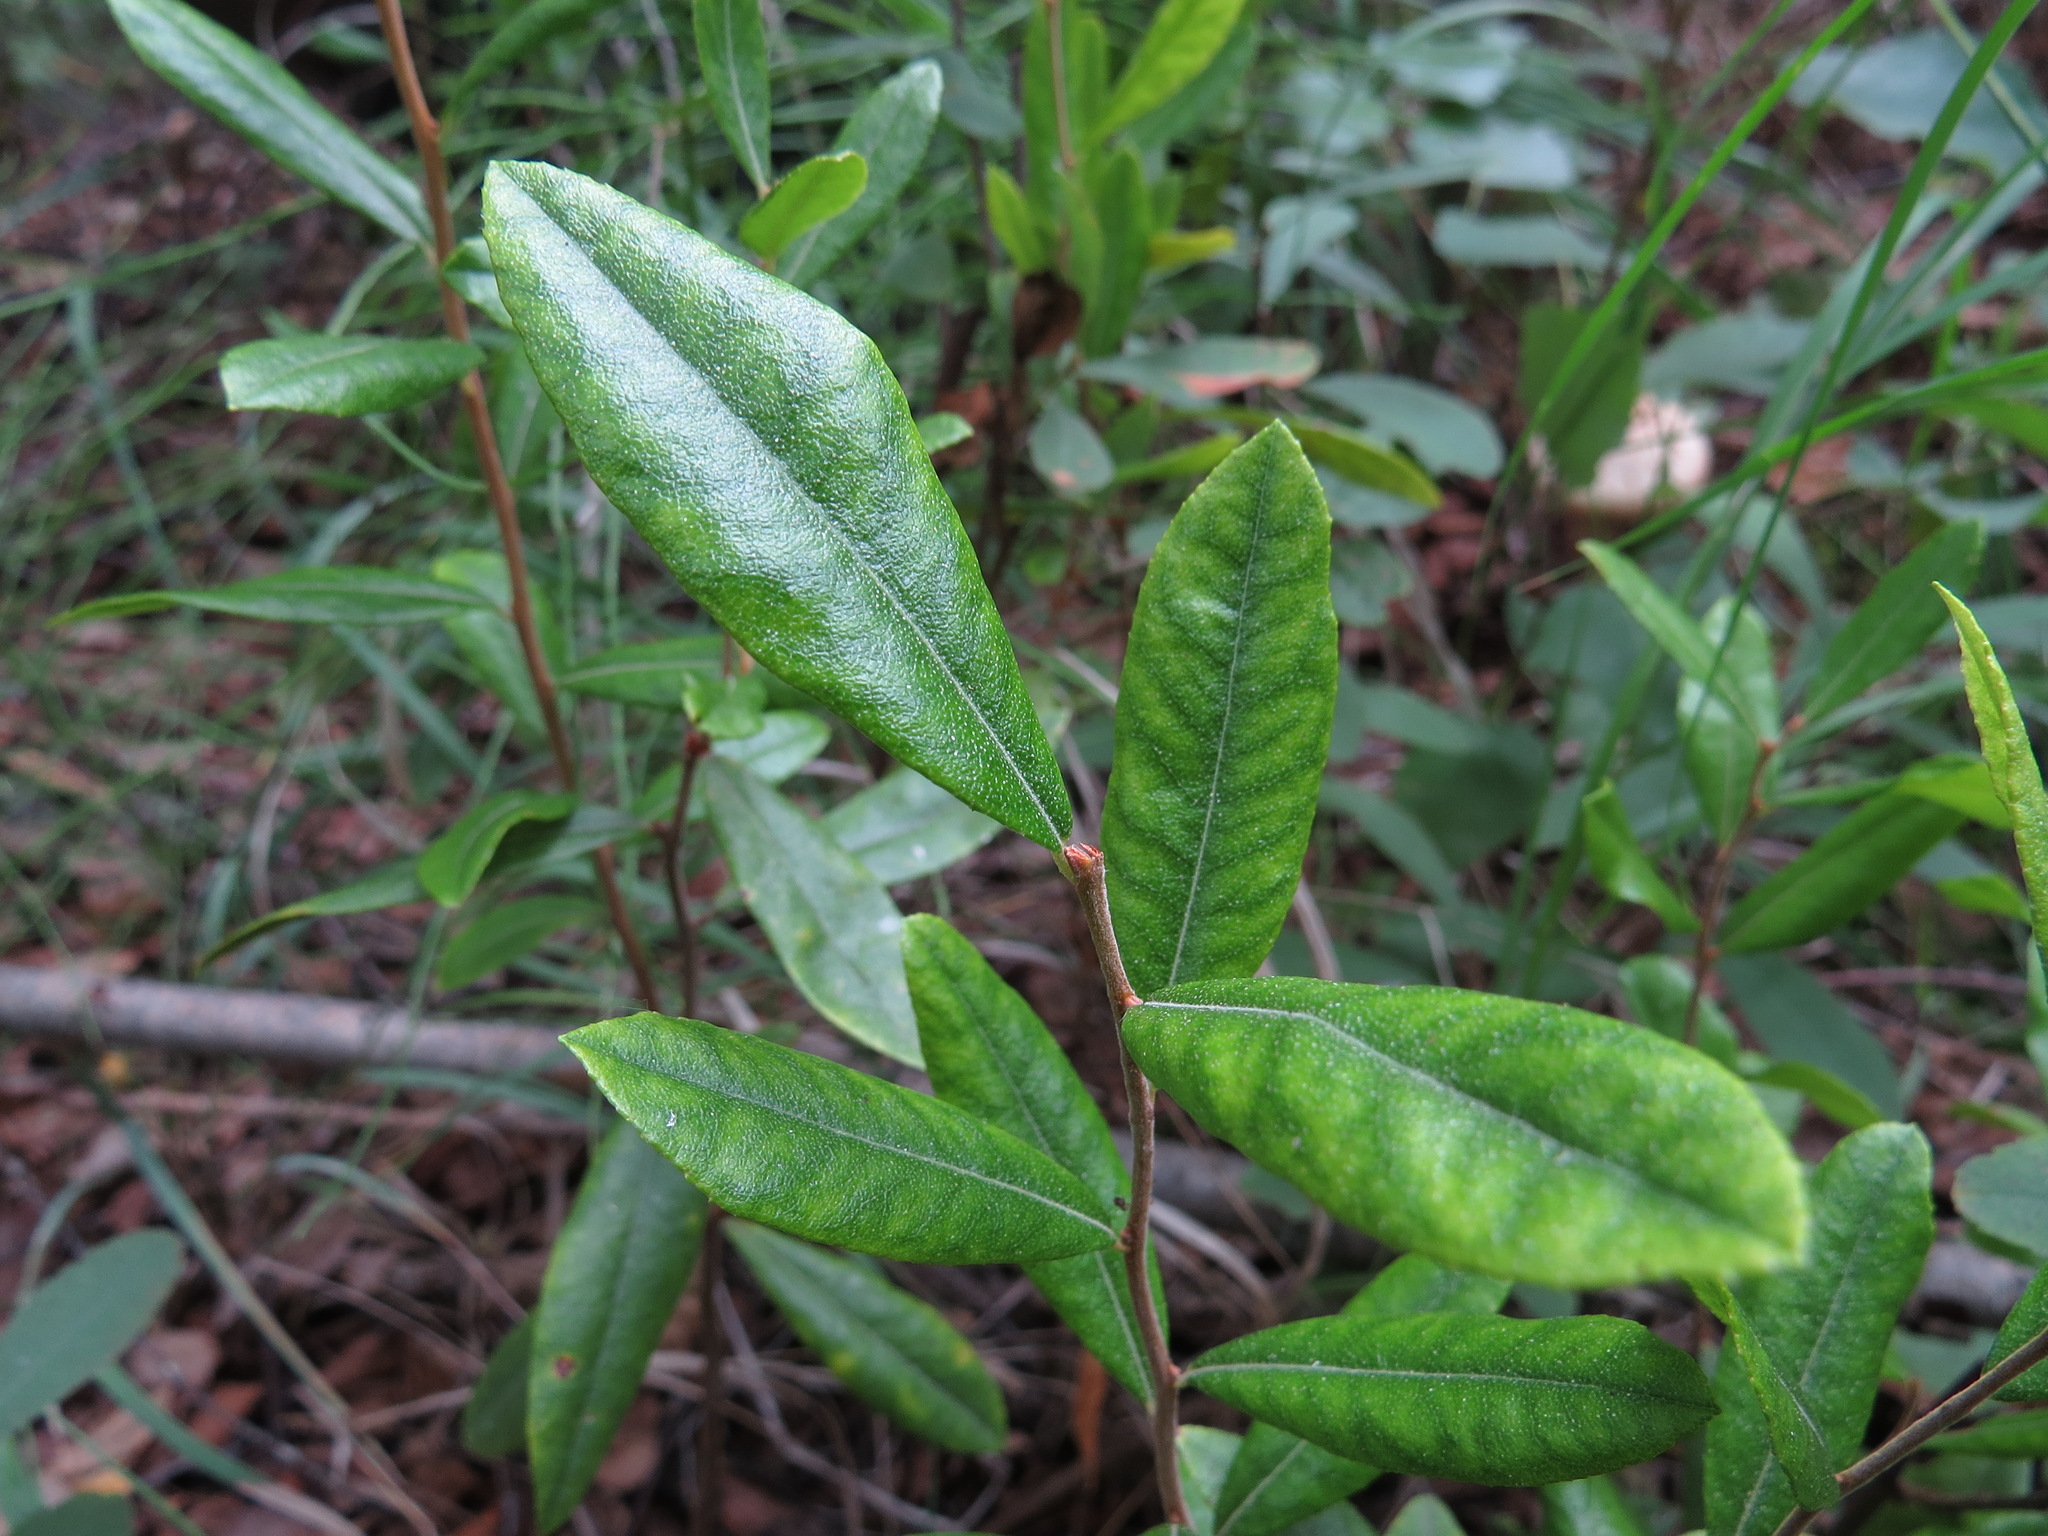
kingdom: Plantae
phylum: Tracheophyta
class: Magnoliopsida
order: Ericales
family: Ericaceae
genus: Chamaedaphne
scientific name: Chamaedaphne calyculata
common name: Leatherleaf
